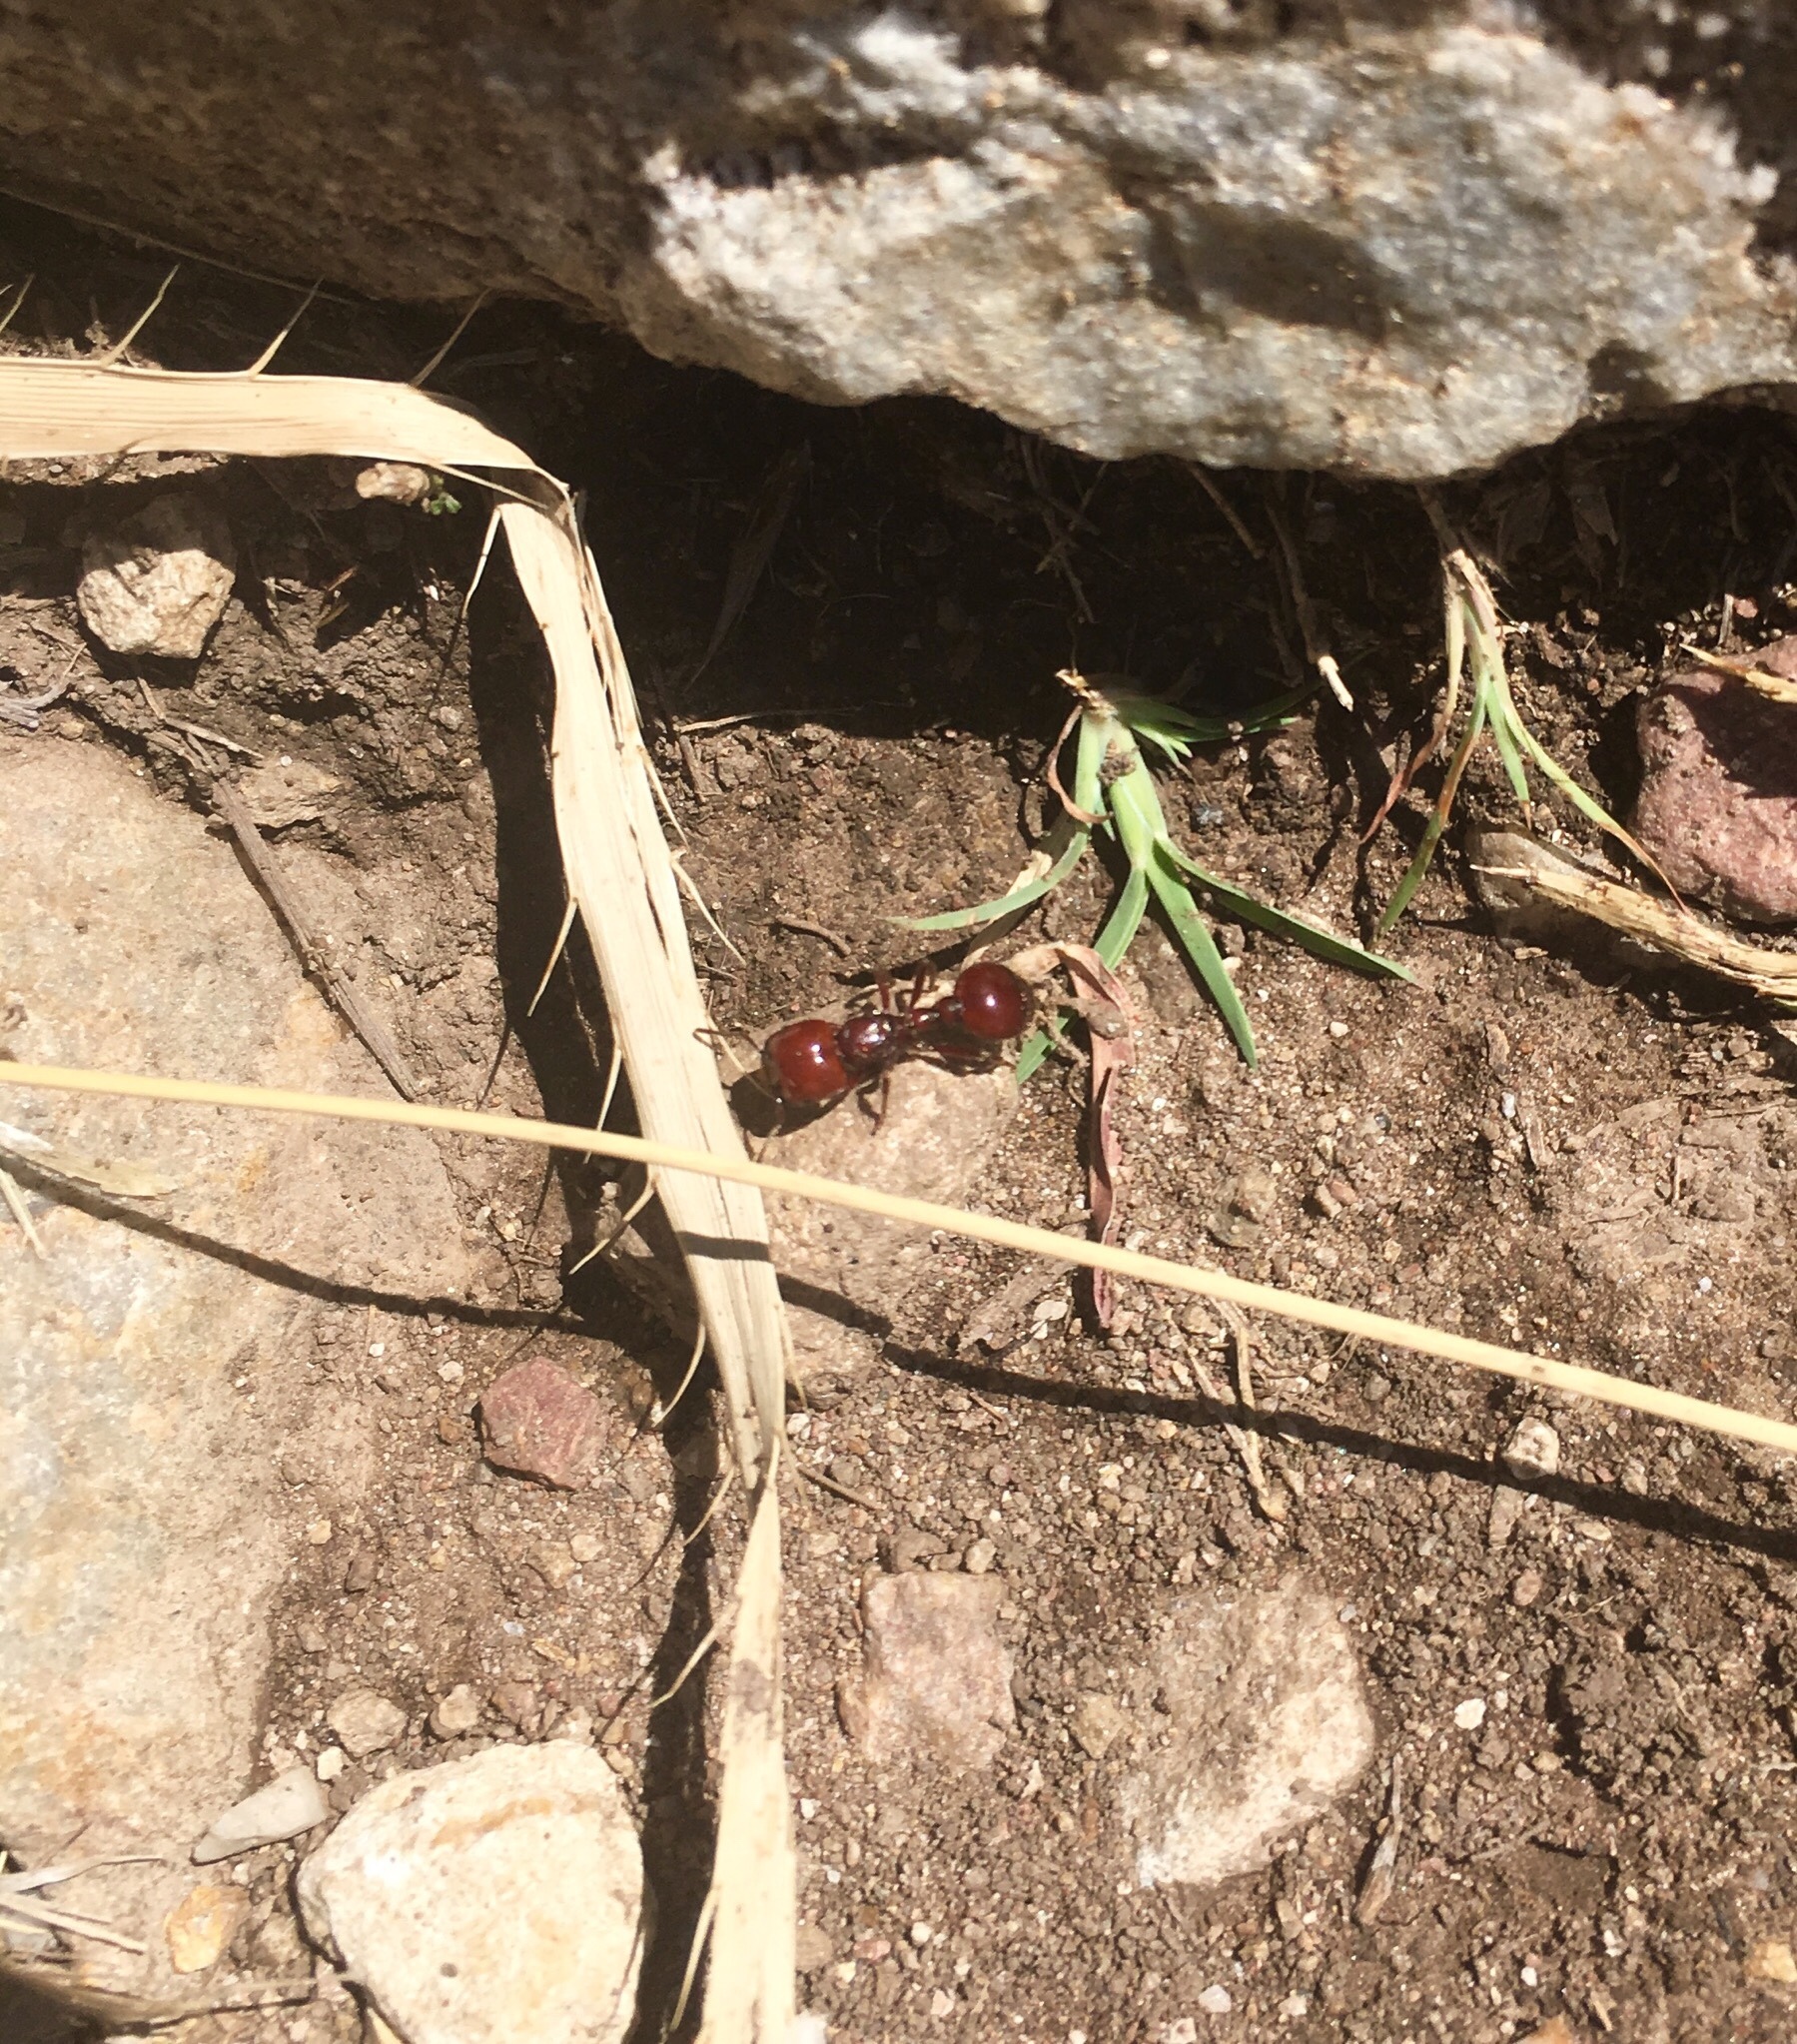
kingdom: Animalia
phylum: Arthropoda
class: Insecta
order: Hymenoptera
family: Formicidae
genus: Pogonomyrmex
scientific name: Pogonomyrmex coarctatus
